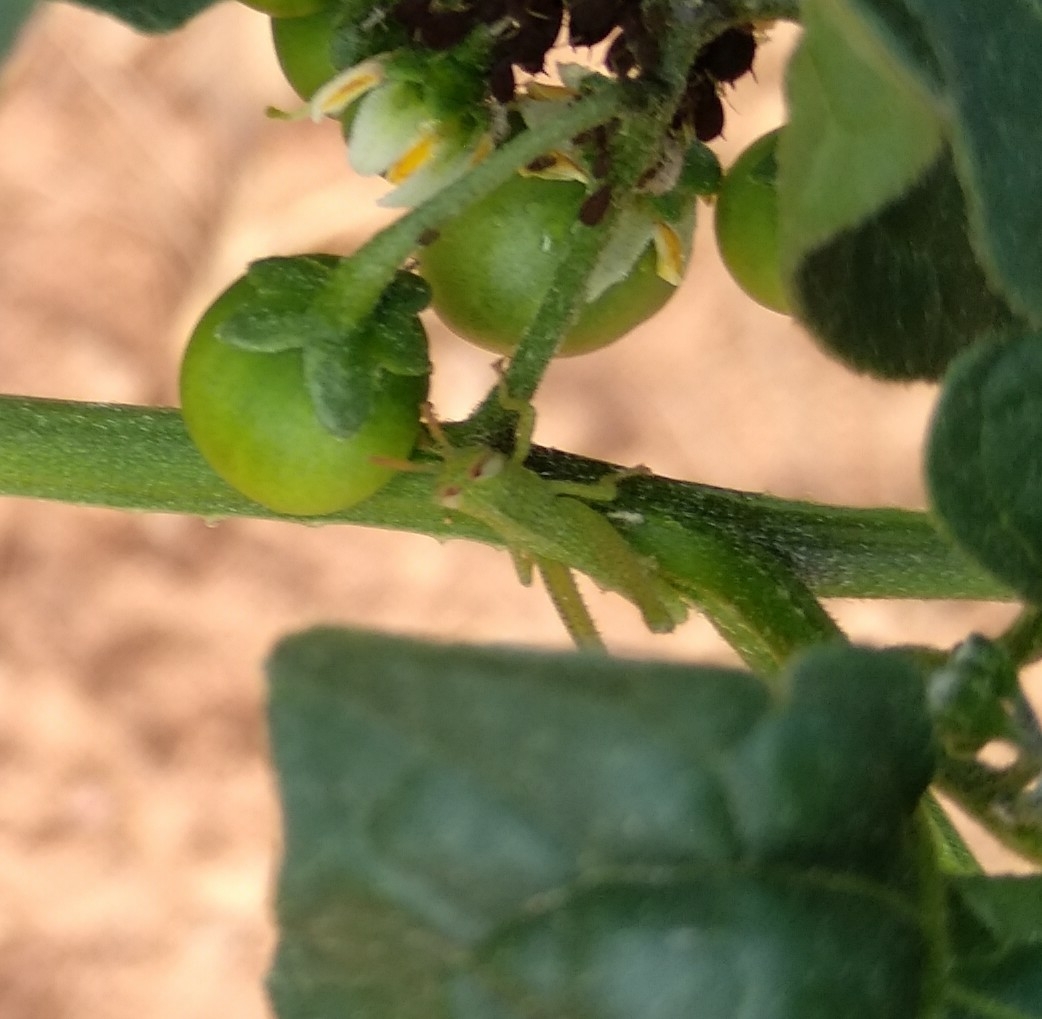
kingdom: Animalia
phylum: Arthropoda
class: Insecta
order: Orthoptera
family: Acrididae
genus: Anacridium
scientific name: Anacridium aegyptium
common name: Egyptian grasshopper
